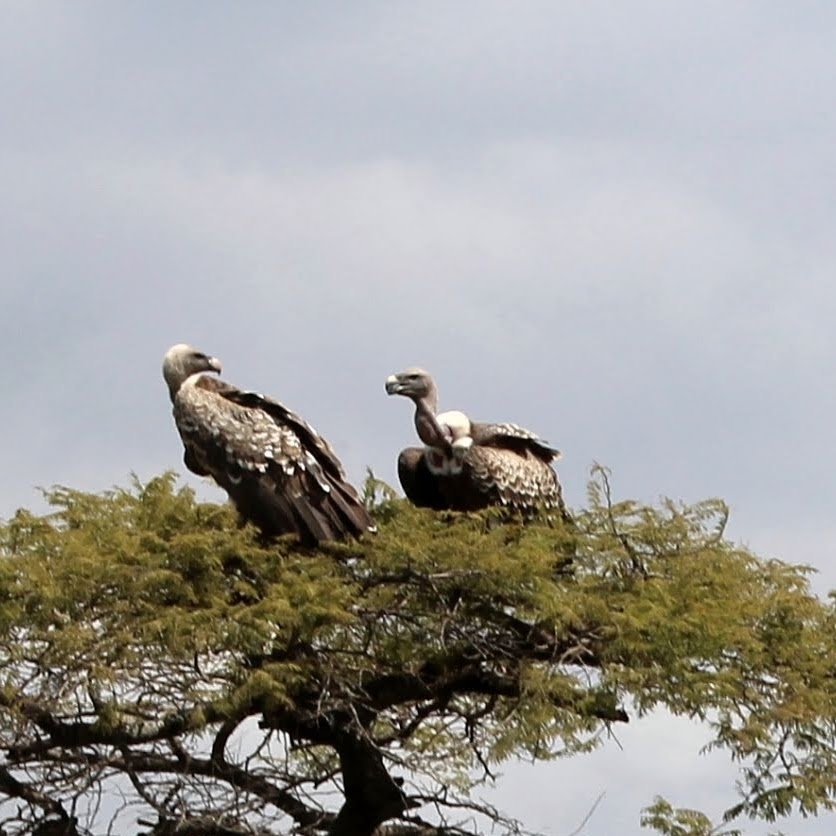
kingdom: Animalia
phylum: Chordata
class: Aves
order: Accipitriformes
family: Accipitridae
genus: Gyps
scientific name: Gyps rueppellii
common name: Rüppell's vulture
